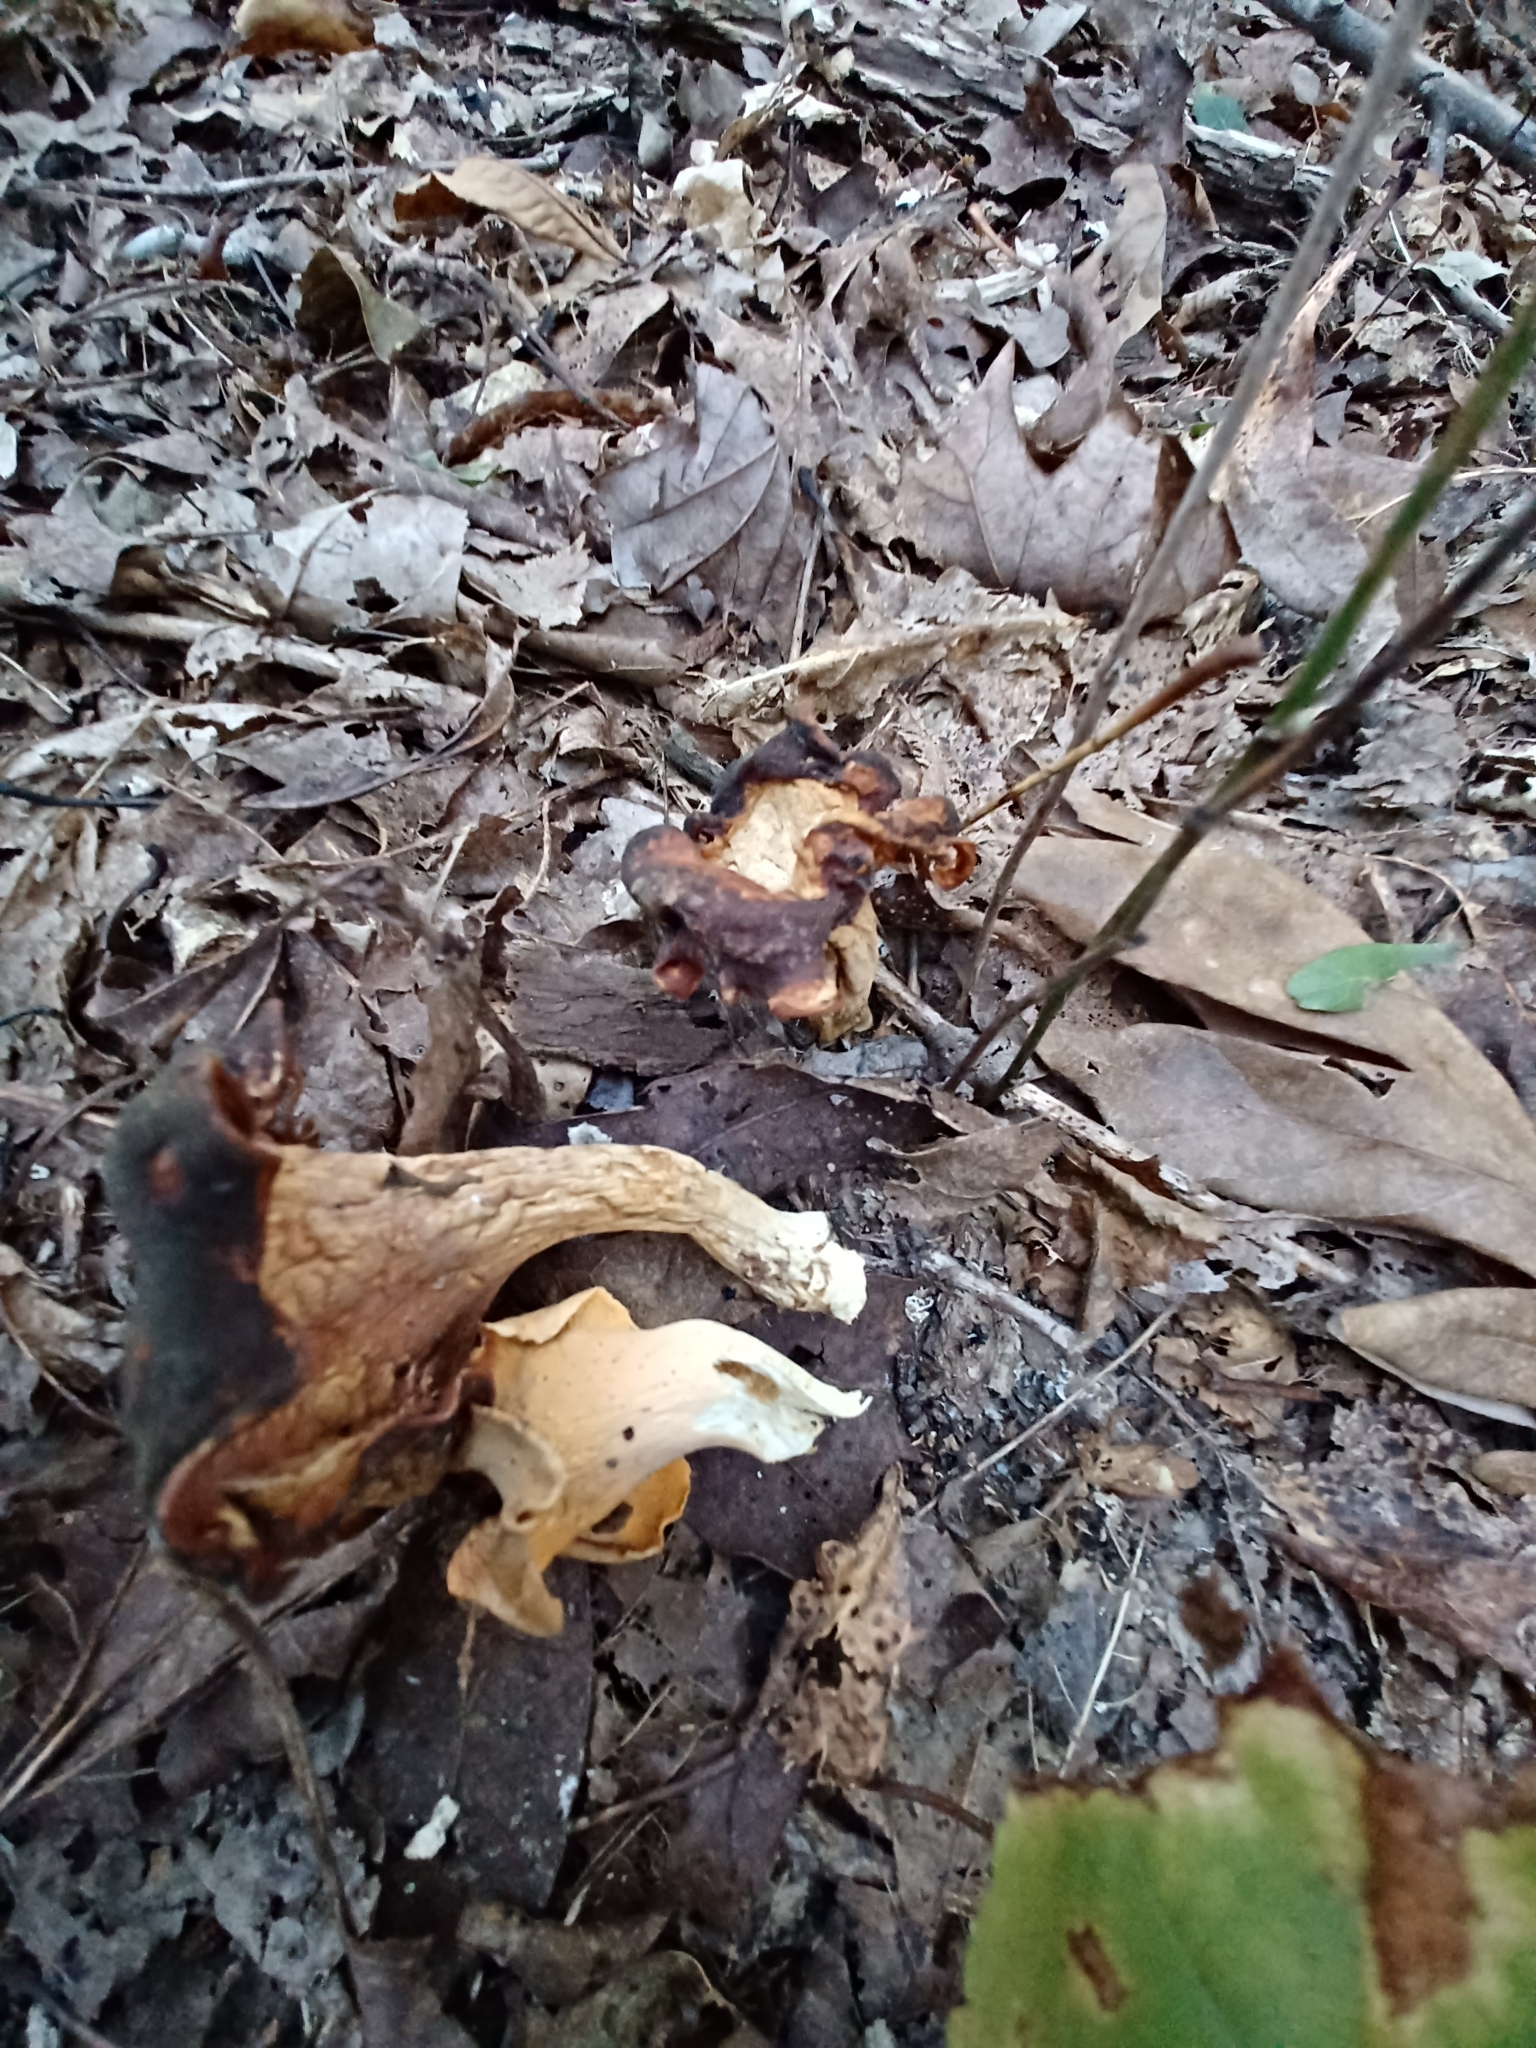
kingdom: Fungi
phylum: Basidiomycota
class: Agaricomycetes
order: Cantharellales
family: Hydnaceae
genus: Cantharellus
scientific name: Cantharellus flavolateritius
